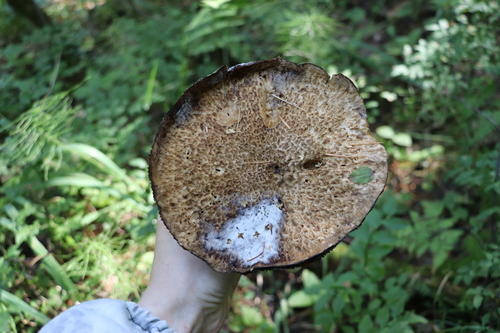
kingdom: Fungi
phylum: Basidiomycota
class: Agaricomycetes
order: Boletales
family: Suillaceae
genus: Suillus
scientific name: Suillus spraguei
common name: Painted suillus
